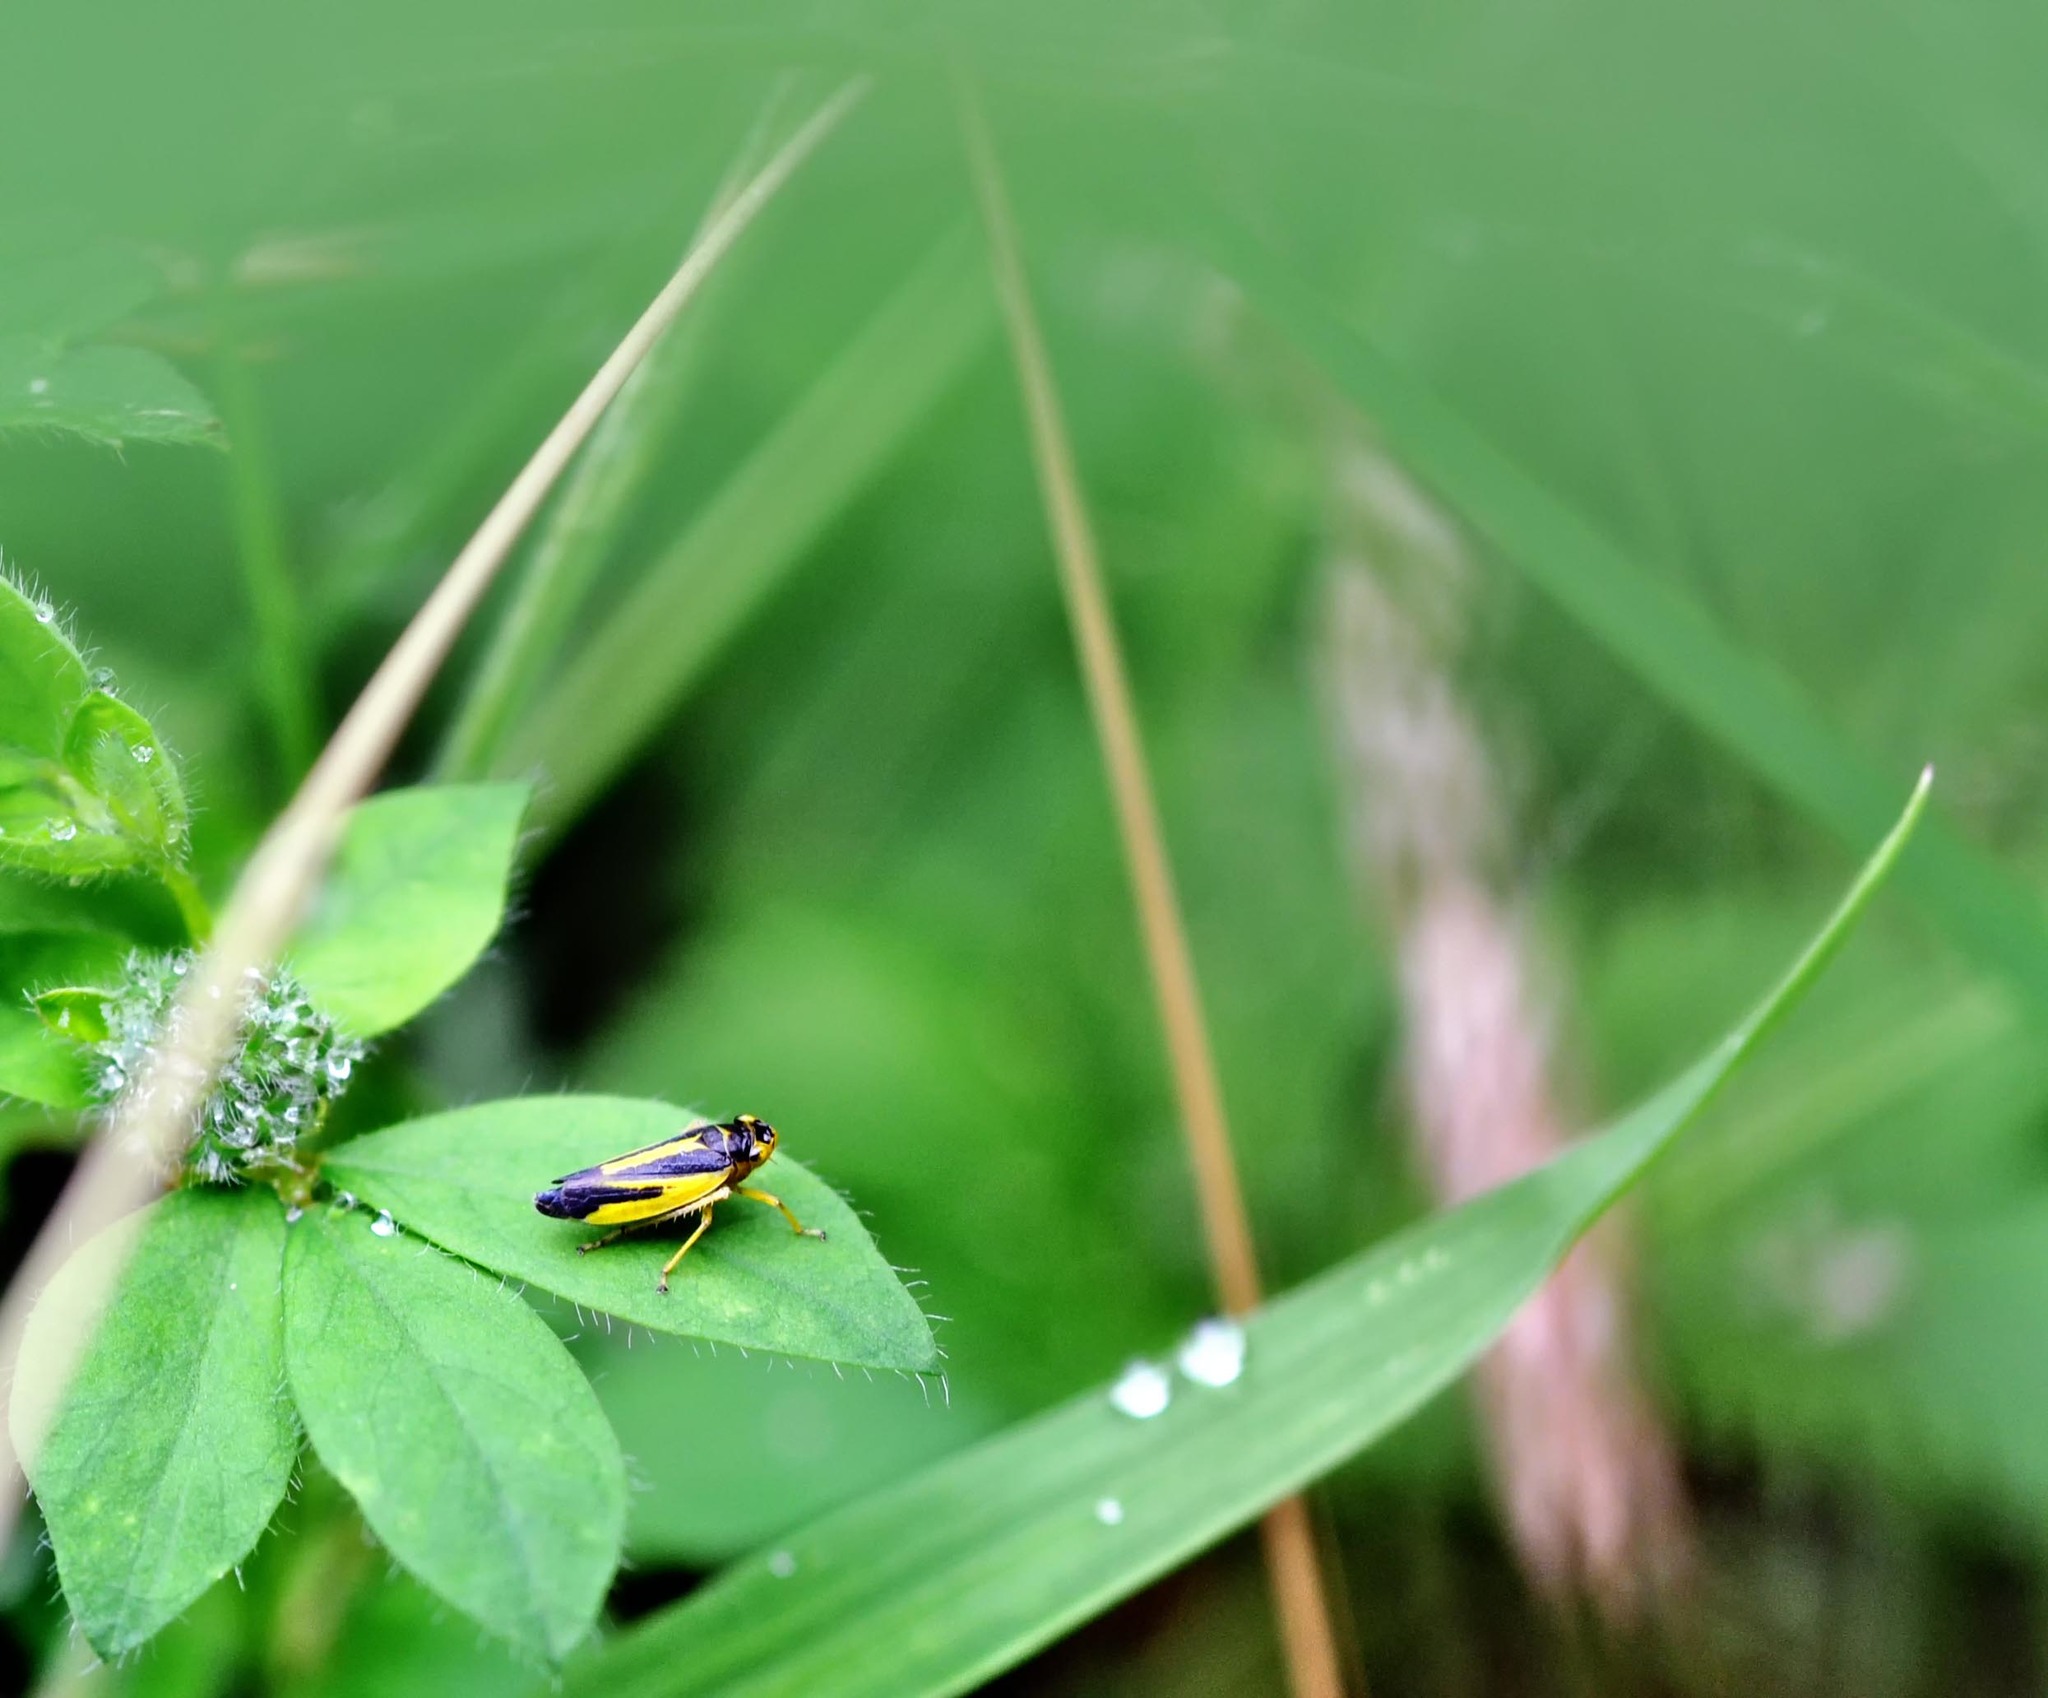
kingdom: Animalia
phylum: Arthropoda
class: Insecta
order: Hemiptera
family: Cicadellidae
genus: Evacanthus
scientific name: Evacanthus interruptus
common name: Leafhopper
